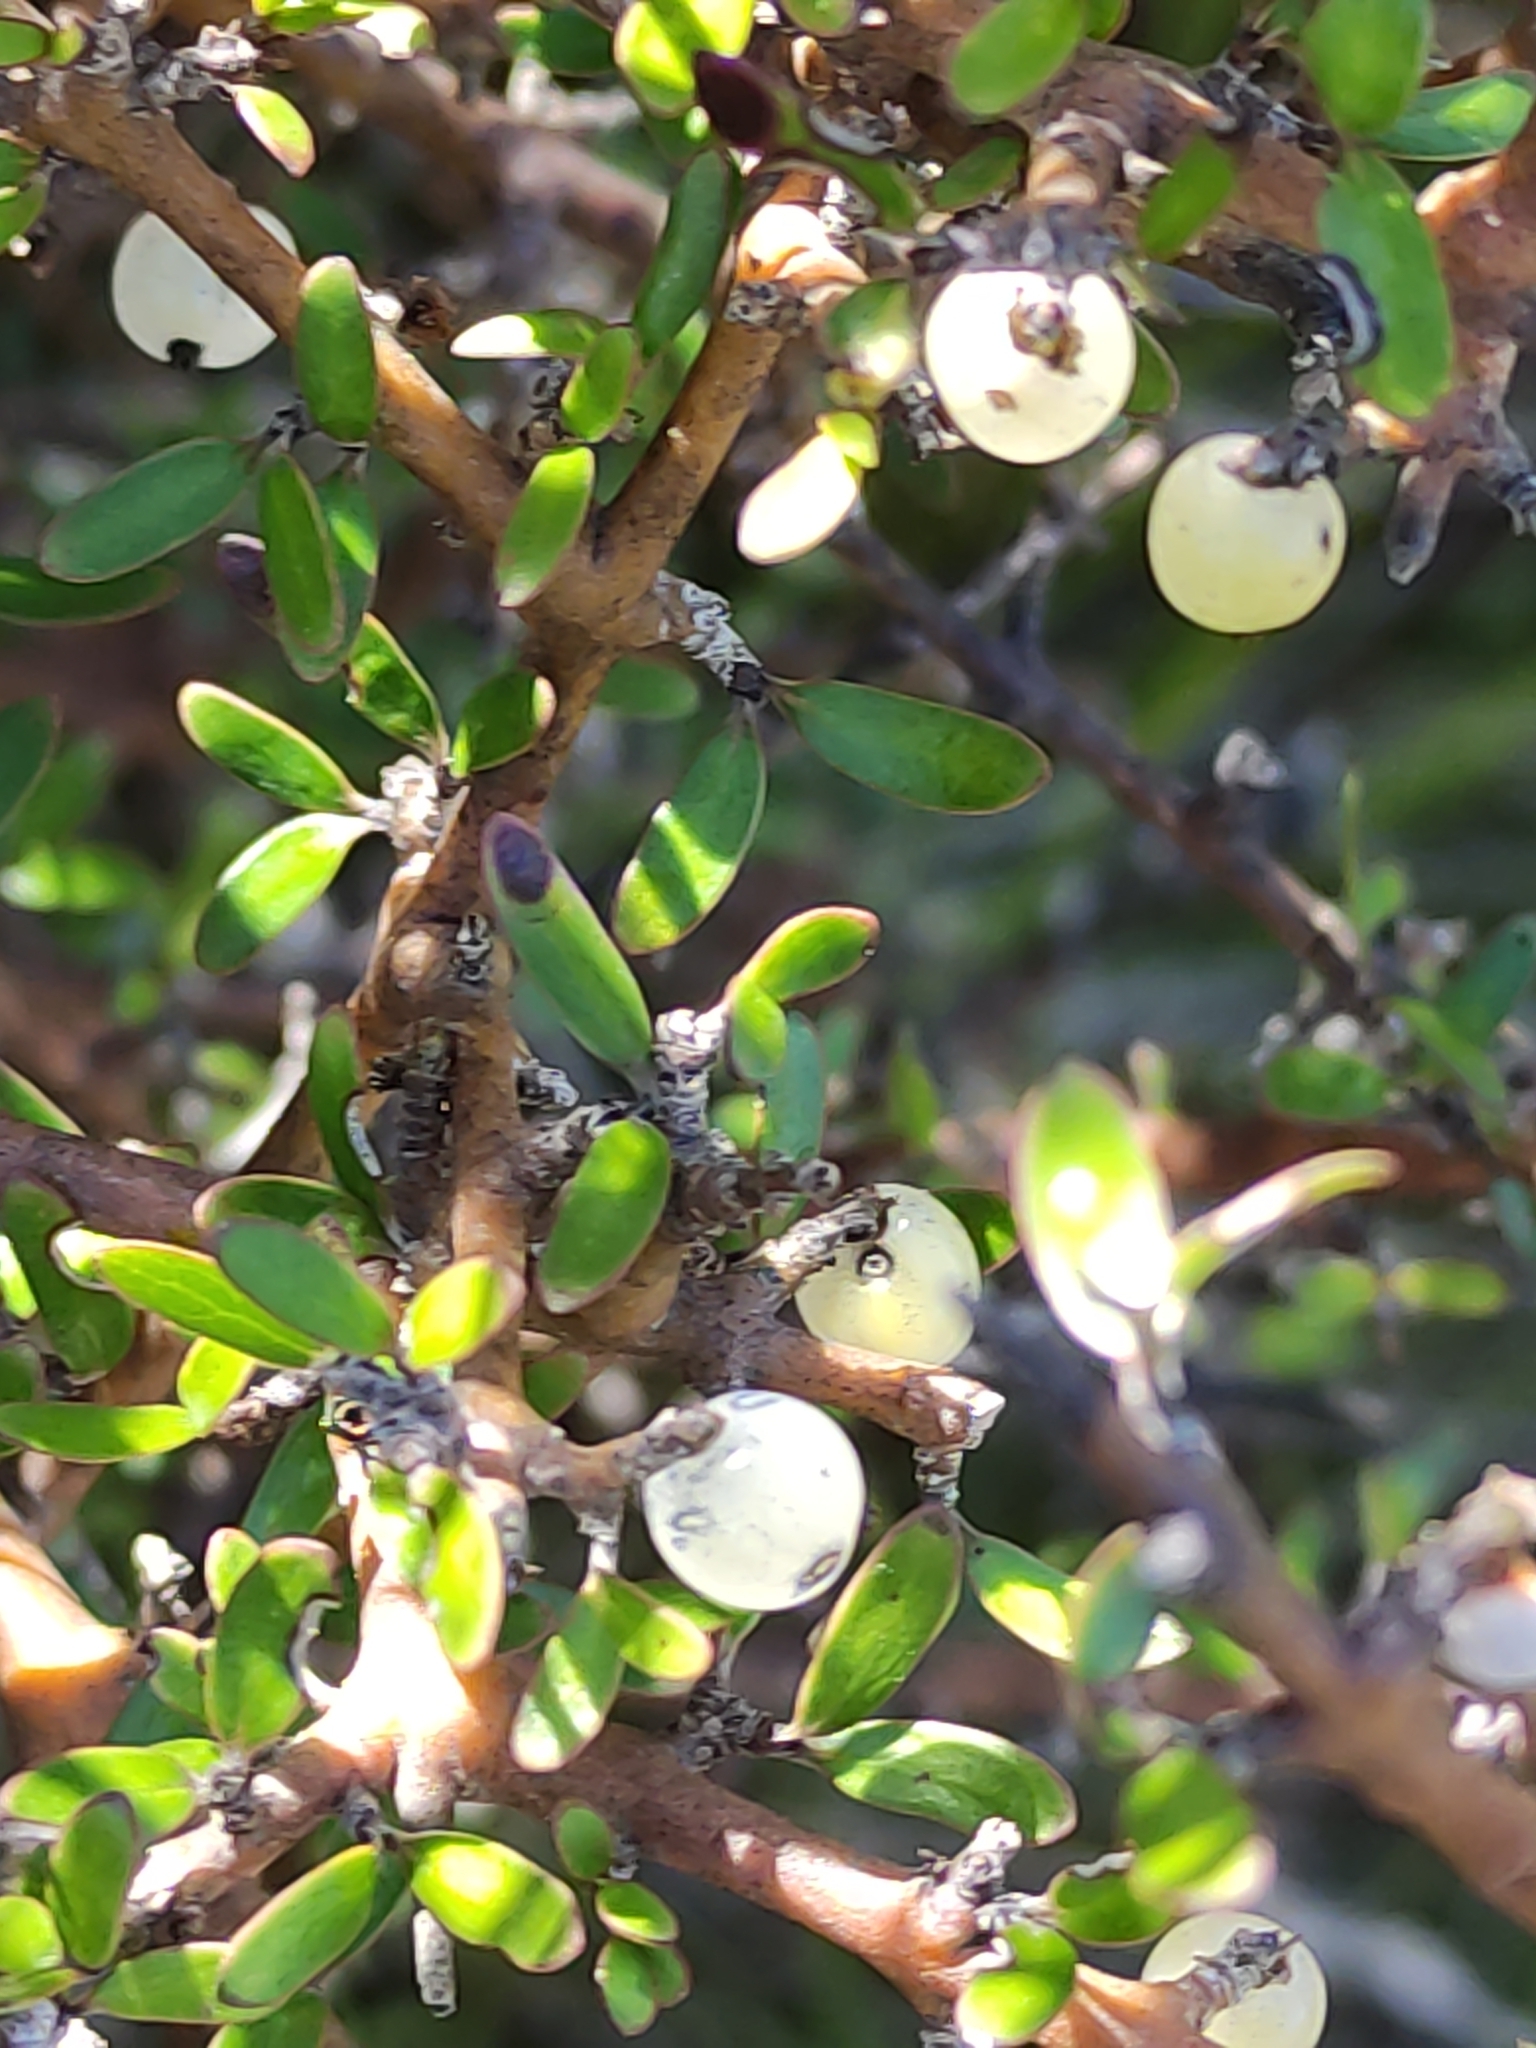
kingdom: Plantae
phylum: Tracheophyta
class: Magnoliopsida
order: Gentianales
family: Rubiaceae
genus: Coprosma
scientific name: Coprosma propinqua
